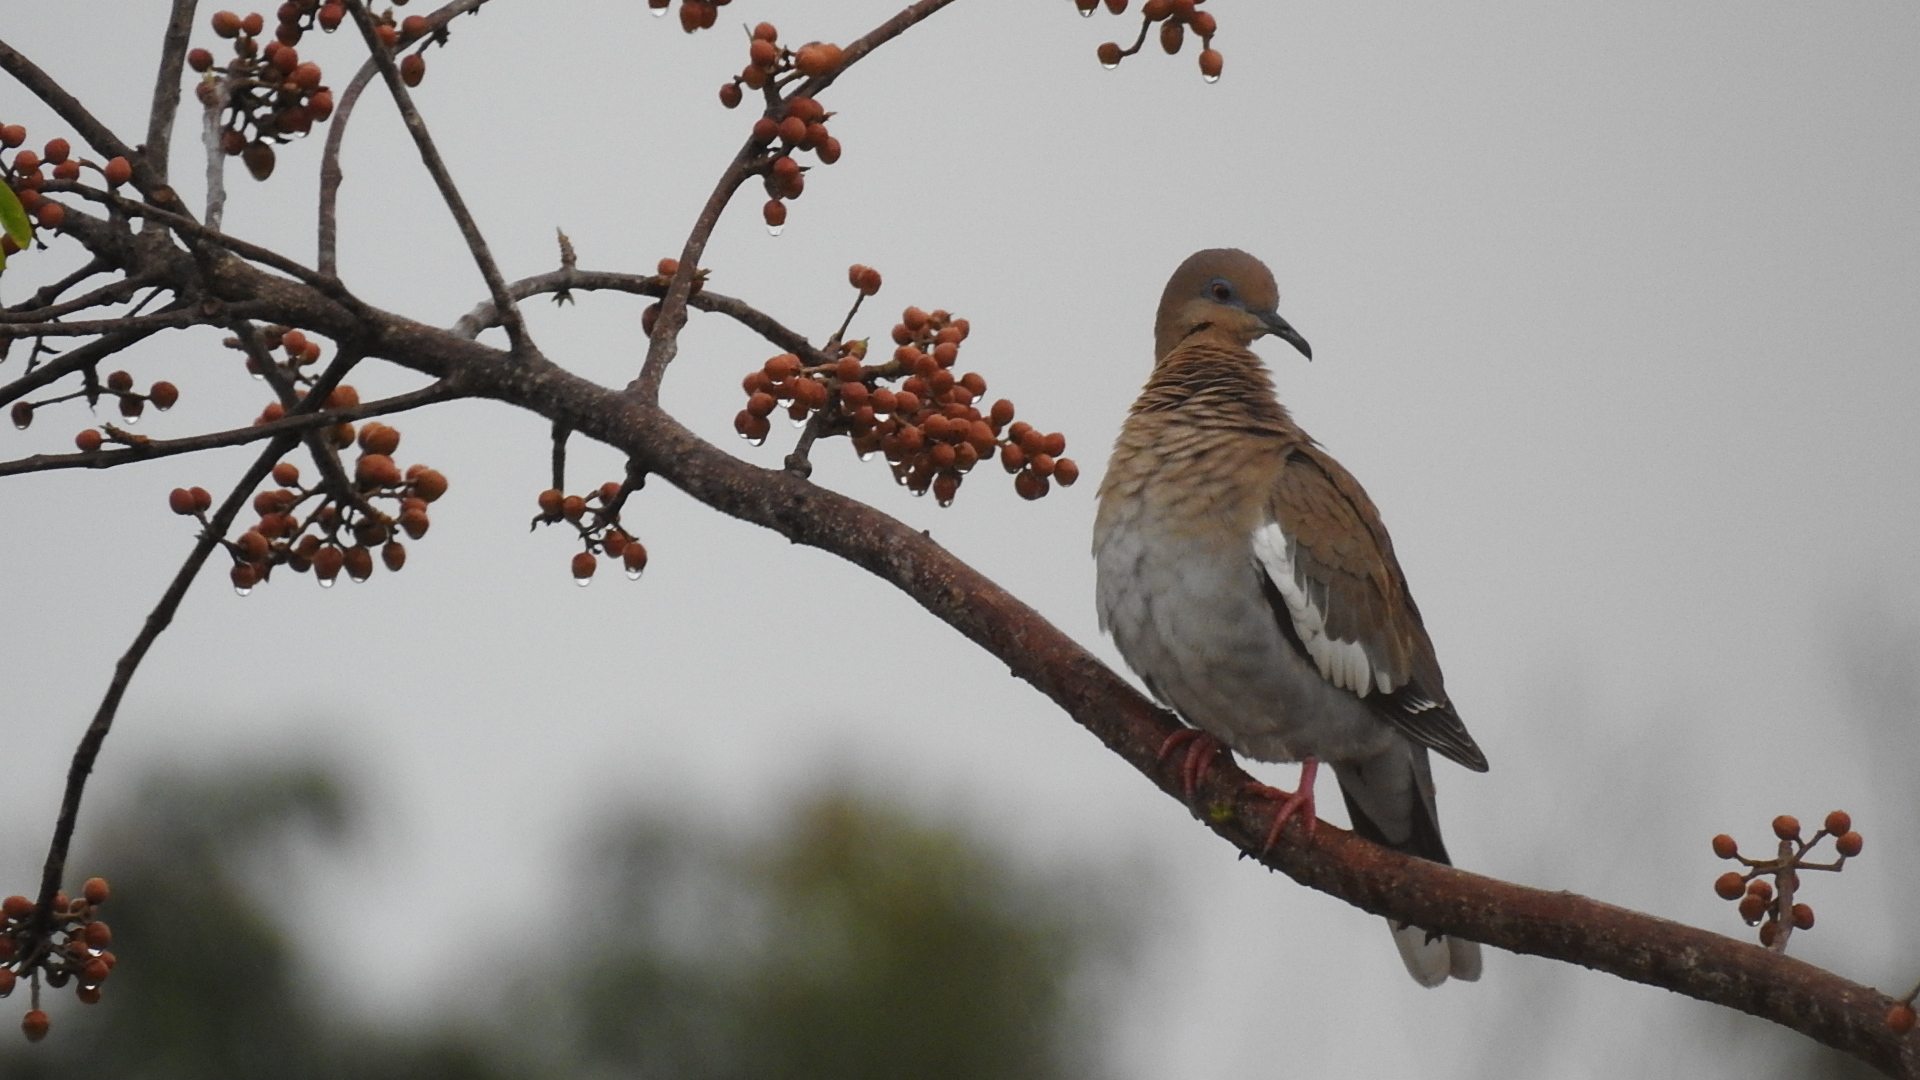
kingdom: Animalia
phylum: Chordata
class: Aves
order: Columbiformes
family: Columbidae
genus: Zenaida
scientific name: Zenaida asiatica
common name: White-winged dove
